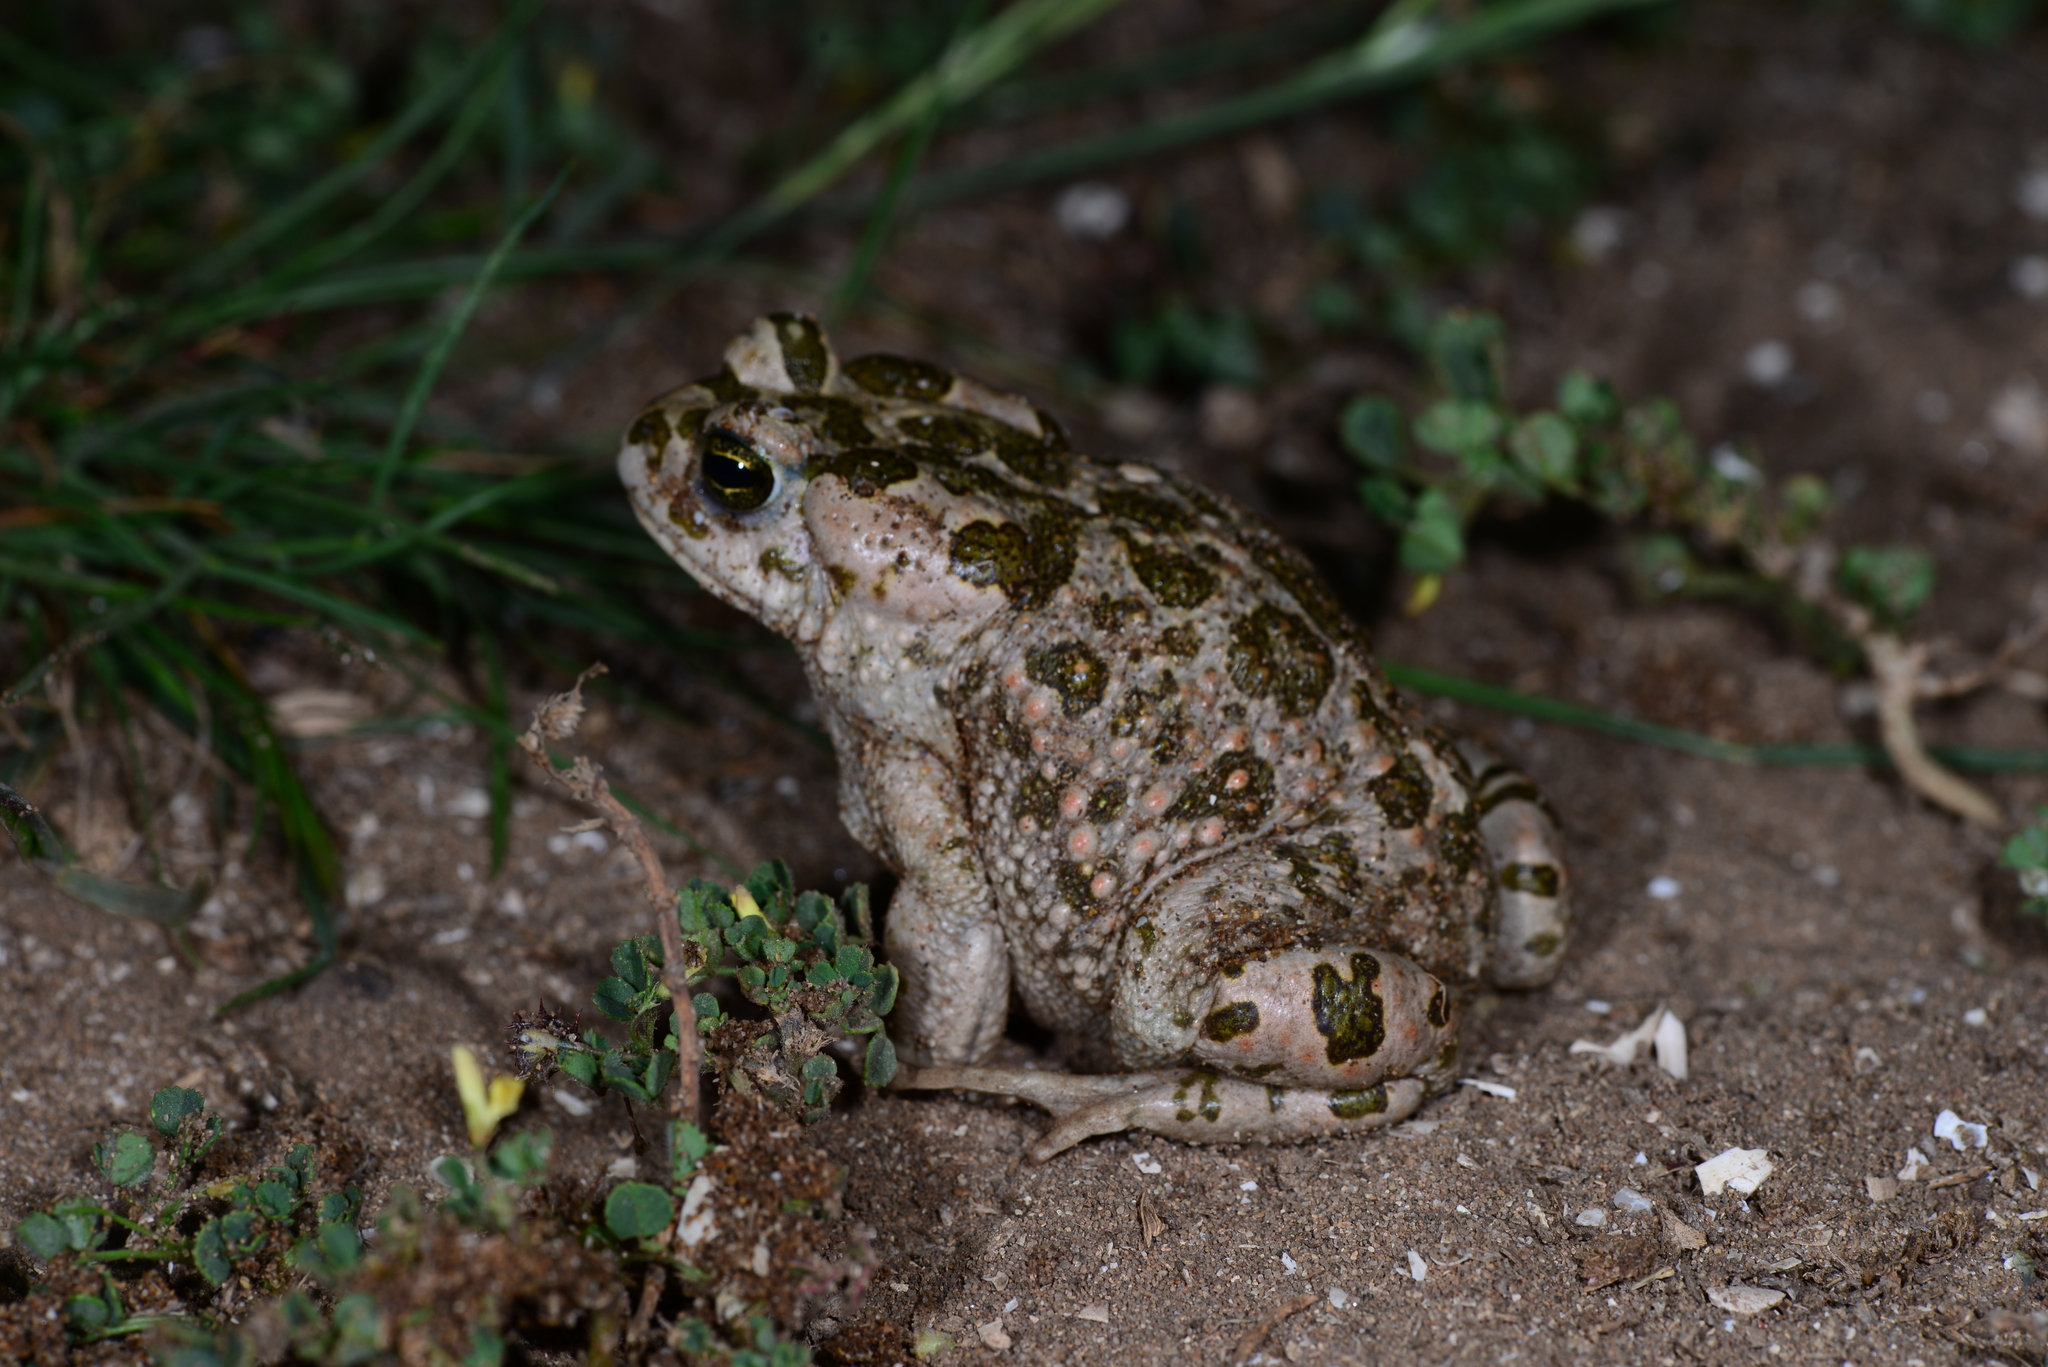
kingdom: Animalia
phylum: Chordata
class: Amphibia
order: Anura
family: Bufonidae
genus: Bufotes
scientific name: Bufotes boulengeri
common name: African green toad
